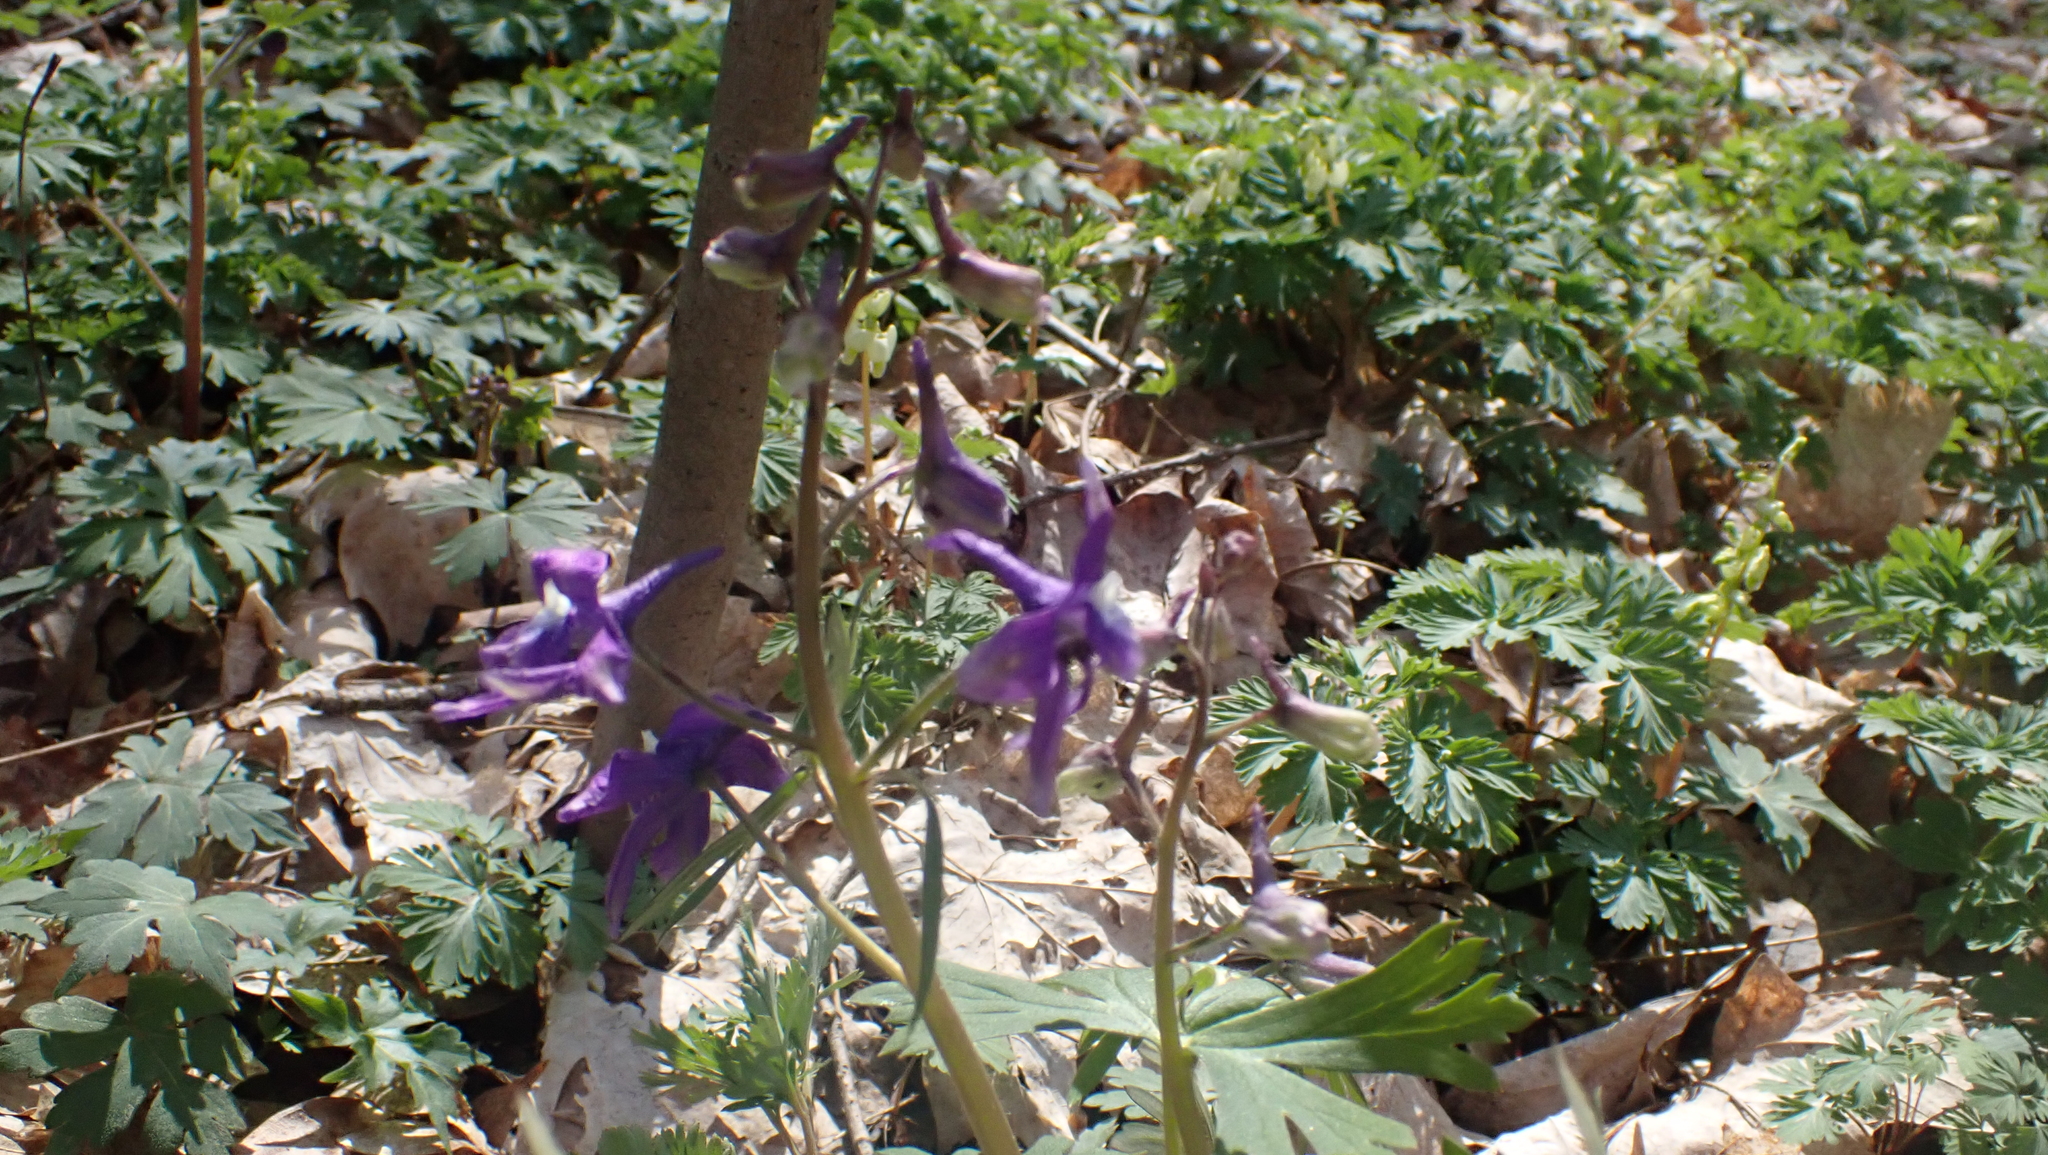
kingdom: Plantae
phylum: Tracheophyta
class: Magnoliopsida
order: Ranunculales
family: Ranunculaceae
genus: Delphinium
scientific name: Delphinium tricorne
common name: Dwarf larkspur
